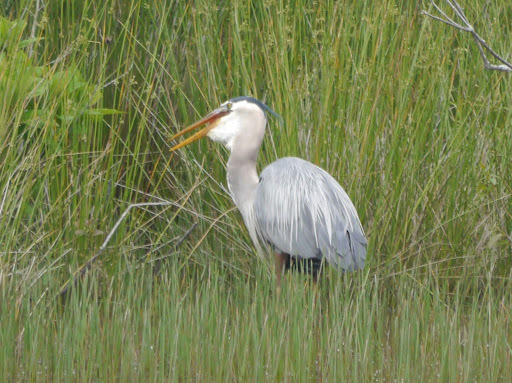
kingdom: Animalia
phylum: Chordata
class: Aves
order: Pelecaniformes
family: Ardeidae
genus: Ardea
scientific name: Ardea herodias
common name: Great blue heron
